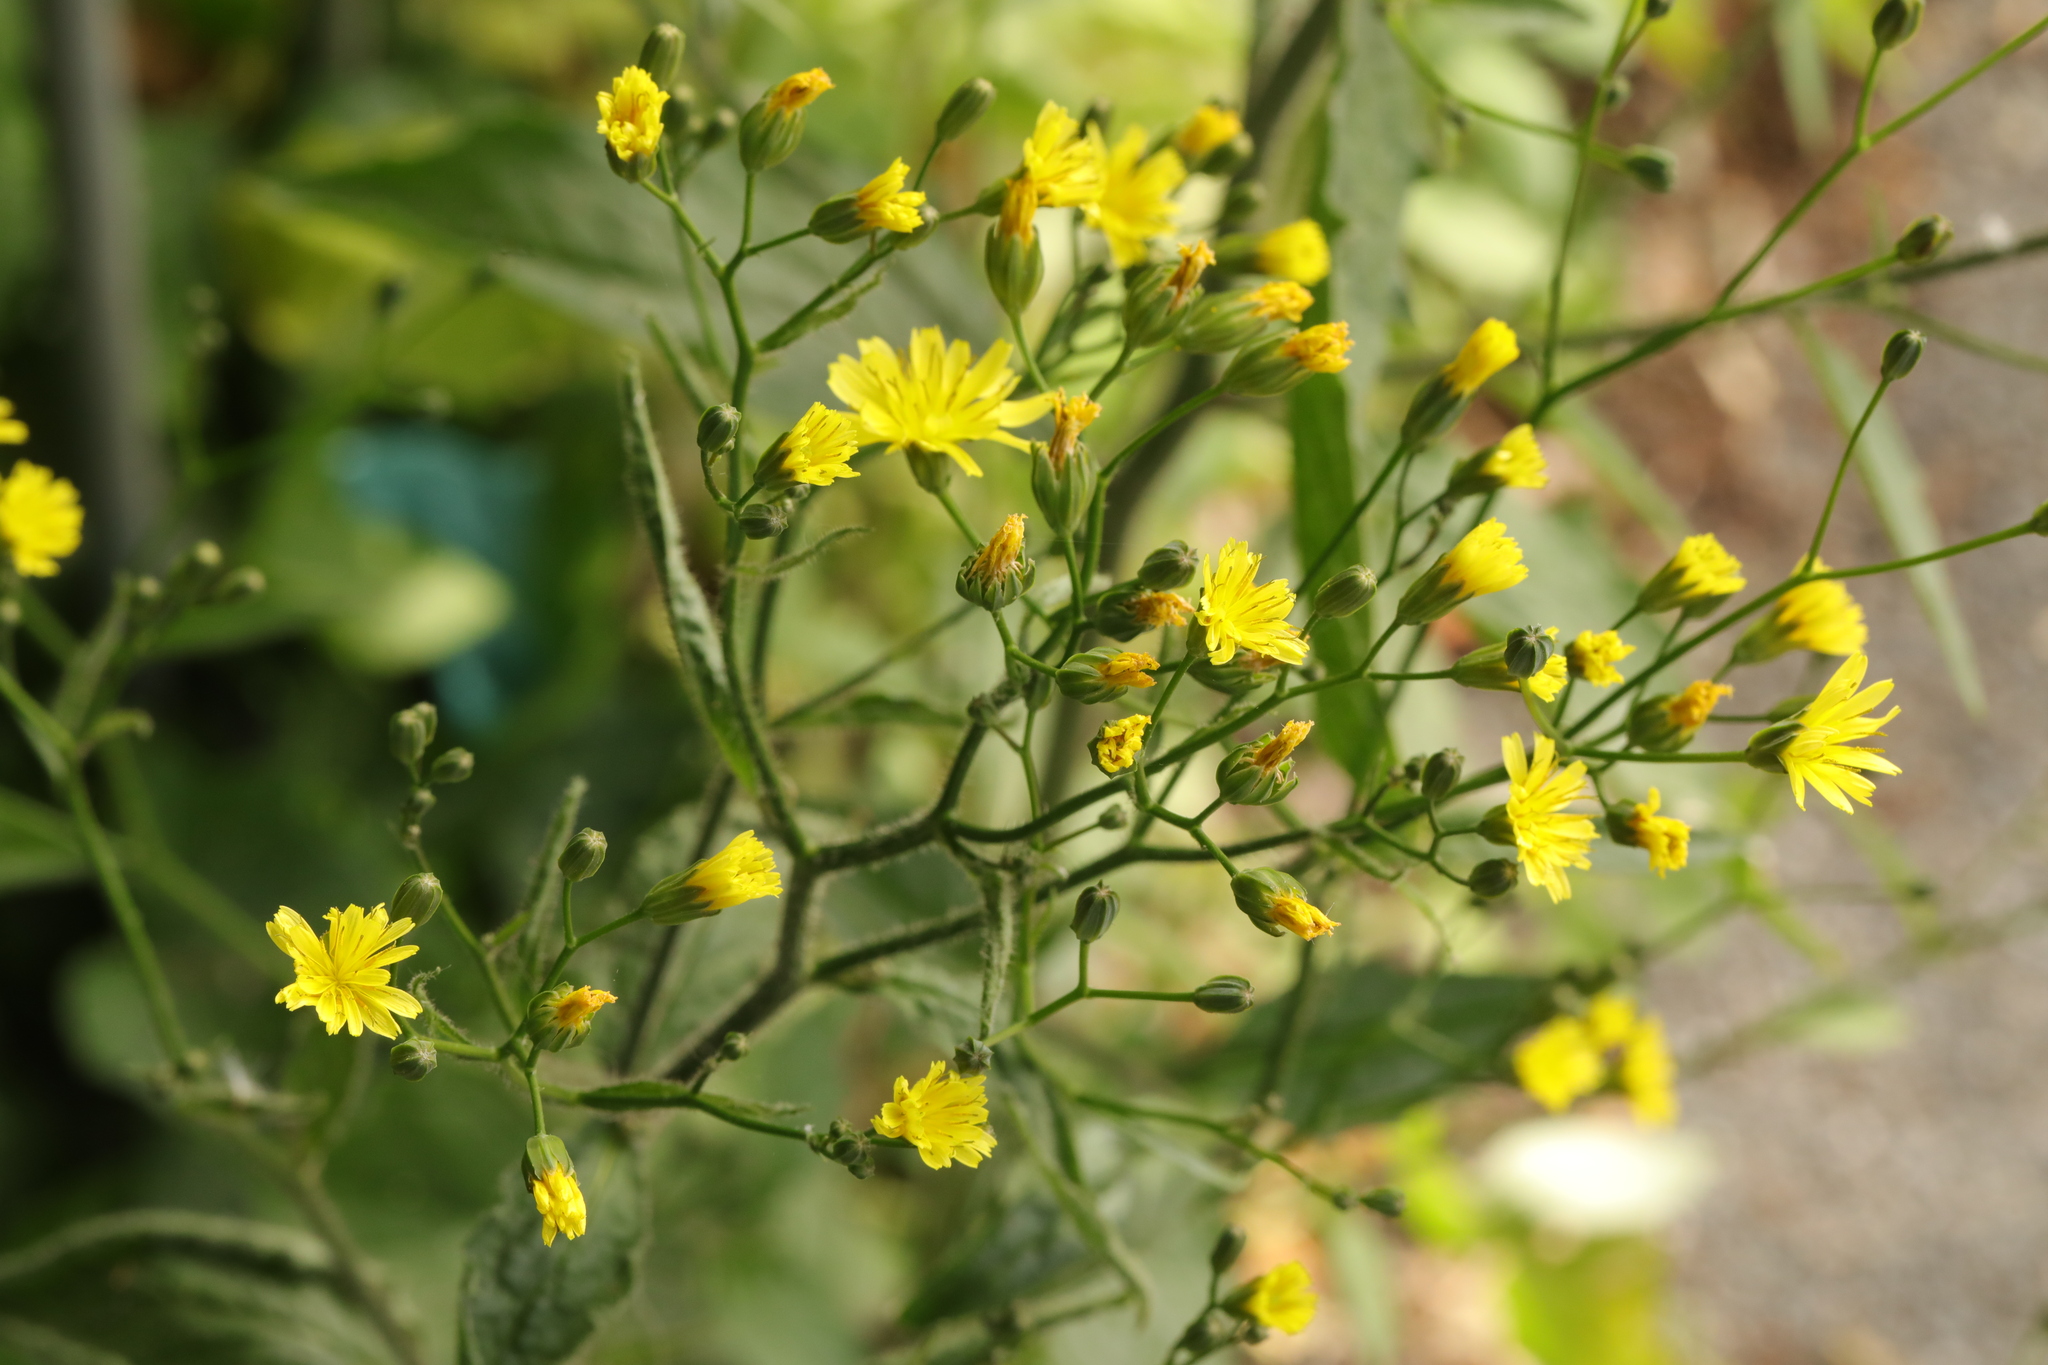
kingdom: Plantae
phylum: Tracheophyta
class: Magnoliopsida
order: Asterales
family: Asteraceae
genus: Lapsana
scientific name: Lapsana communis
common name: Nipplewort
